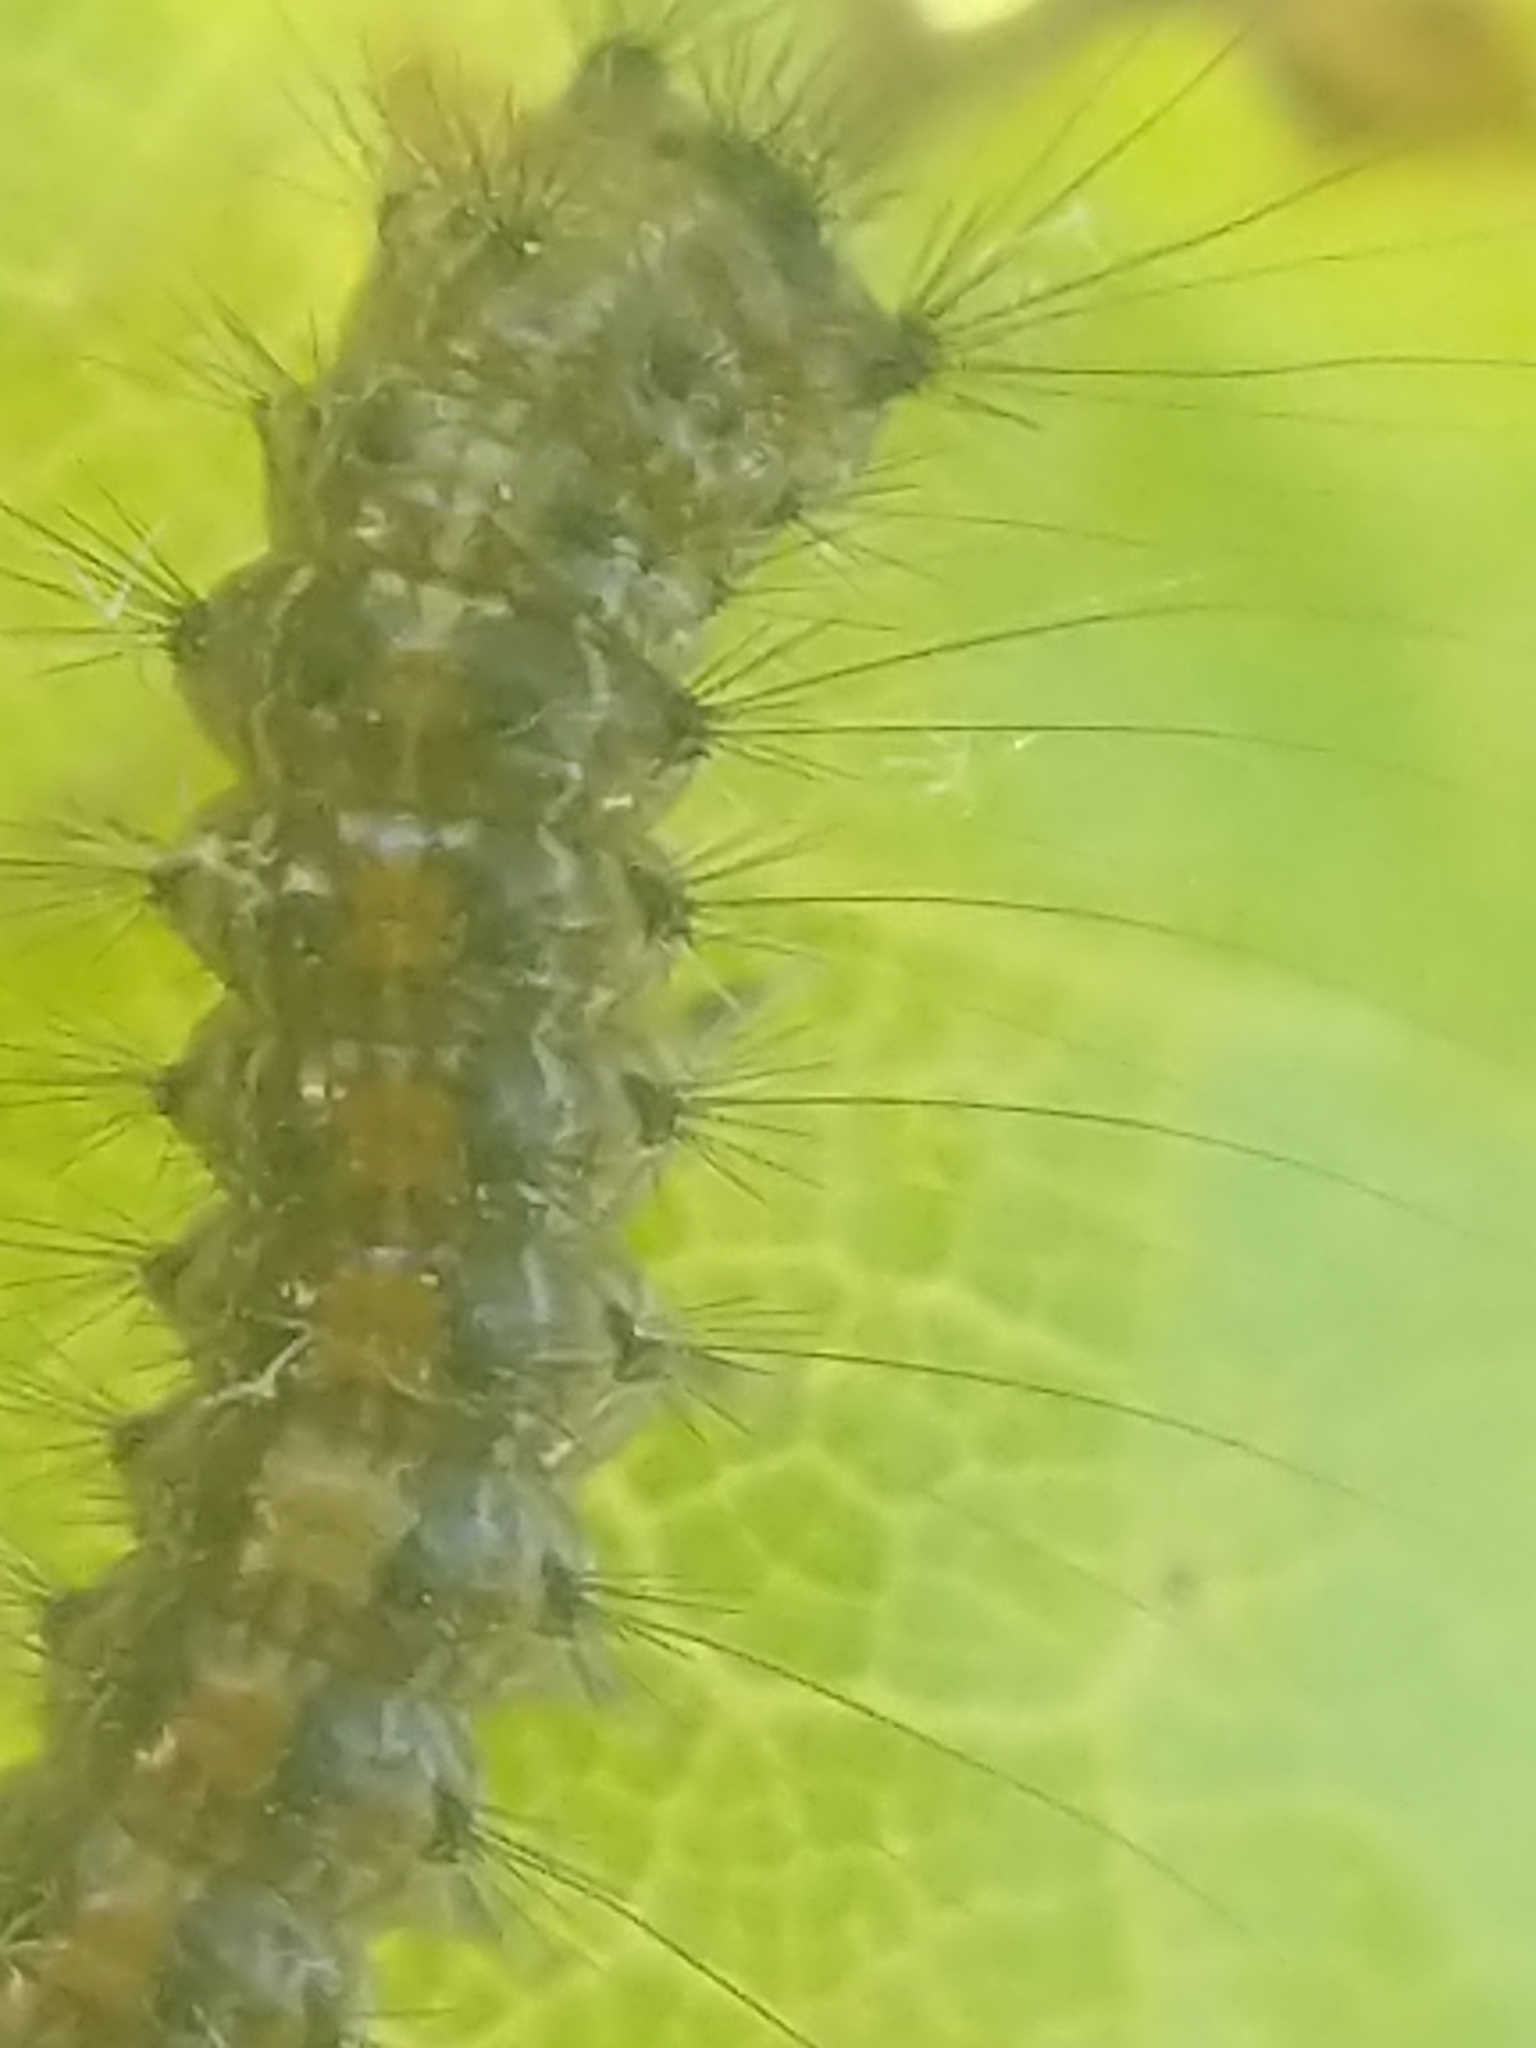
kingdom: Animalia
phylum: Arthropoda
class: Insecta
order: Lepidoptera
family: Erebidae
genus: Lymantria
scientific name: Lymantria dispar
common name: Gypsy moth
